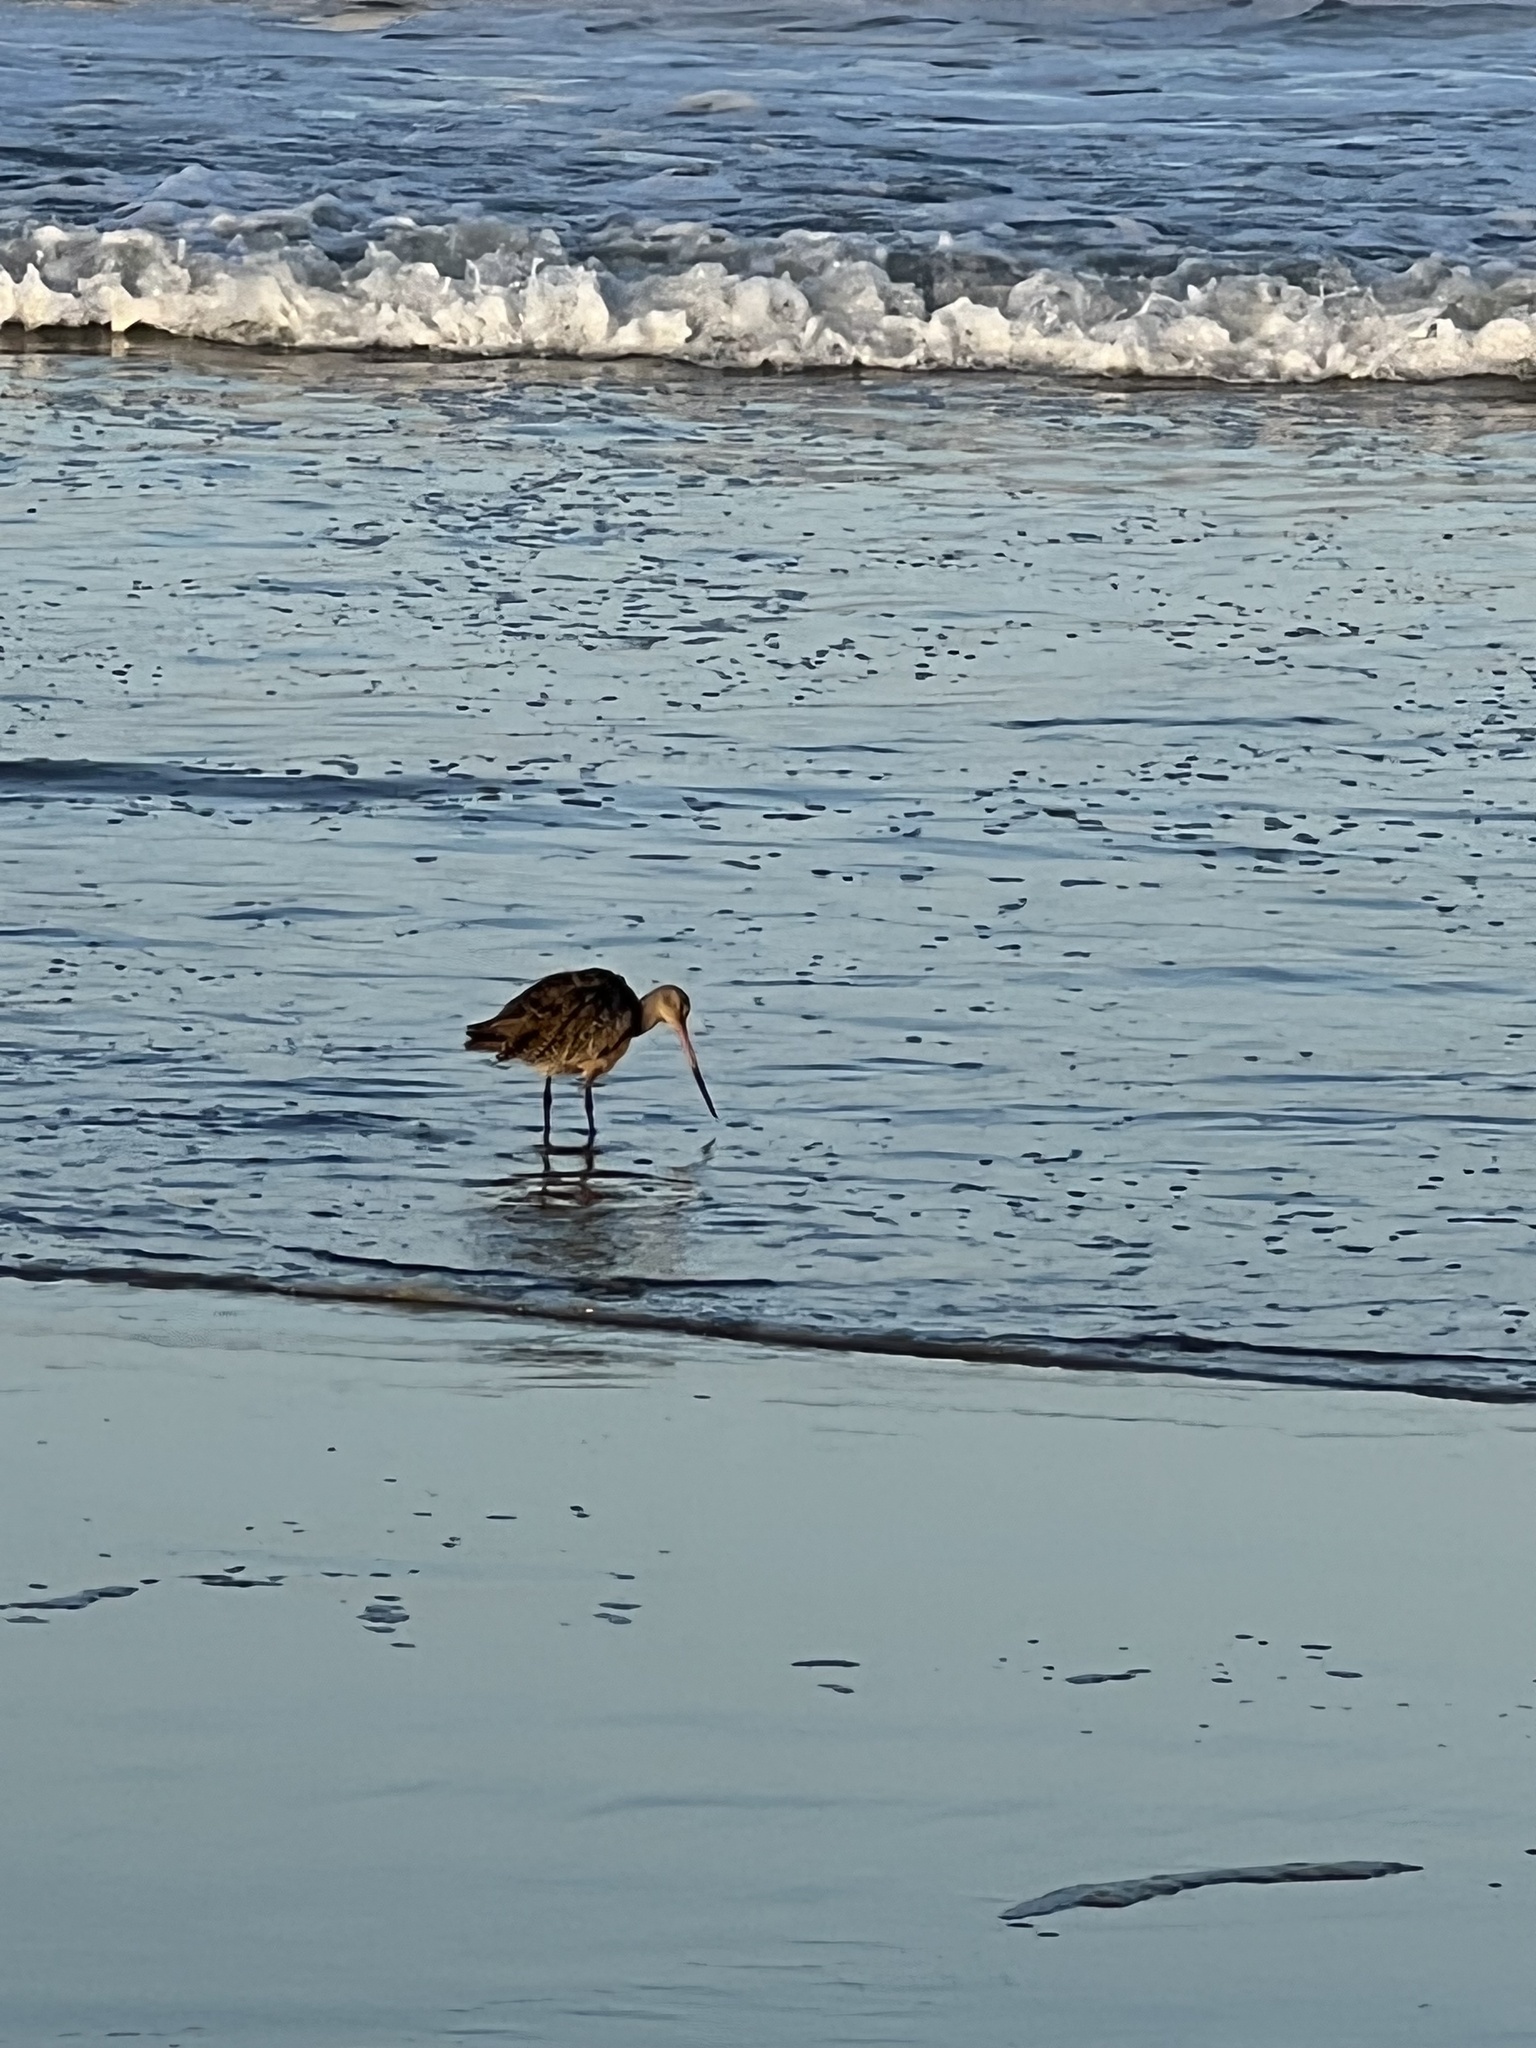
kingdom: Animalia
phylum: Chordata
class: Aves
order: Charadriiformes
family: Scolopacidae
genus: Limosa
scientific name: Limosa fedoa
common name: Marbled godwit
